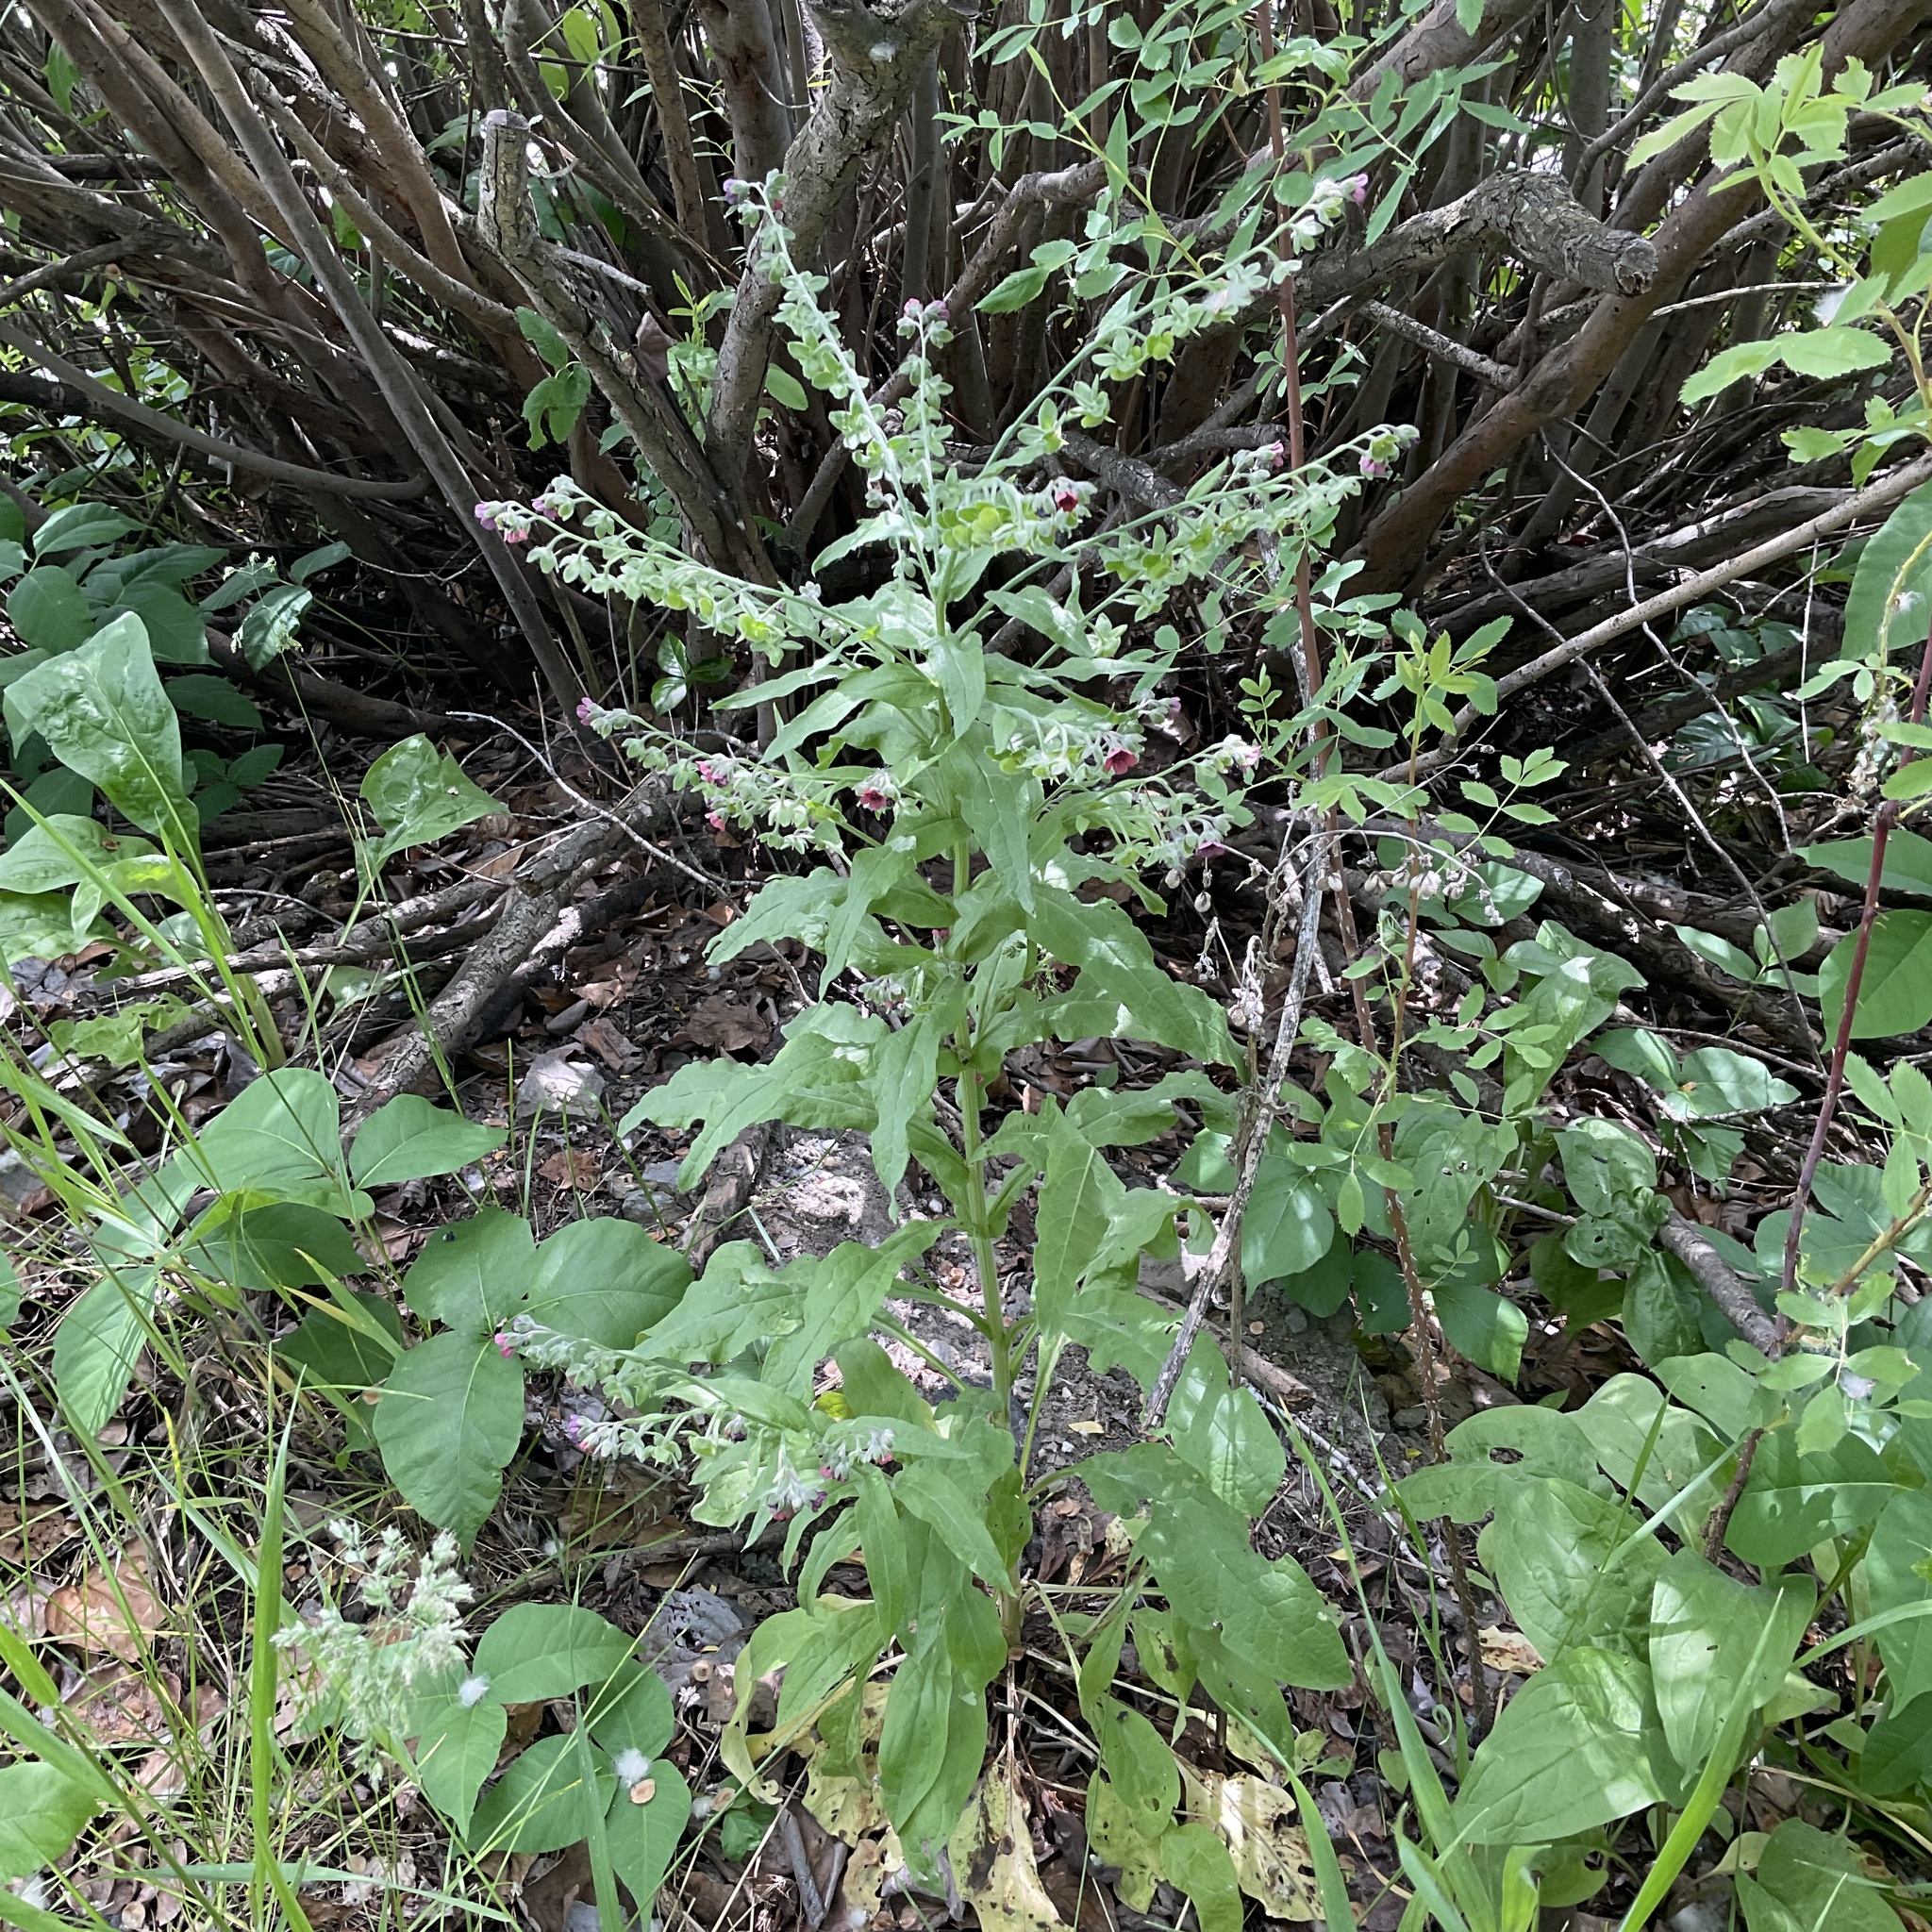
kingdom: Plantae
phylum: Tracheophyta
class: Magnoliopsida
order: Boraginales
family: Boraginaceae
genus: Cynoglossum
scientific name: Cynoglossum officinale
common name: Hound's-tongue
